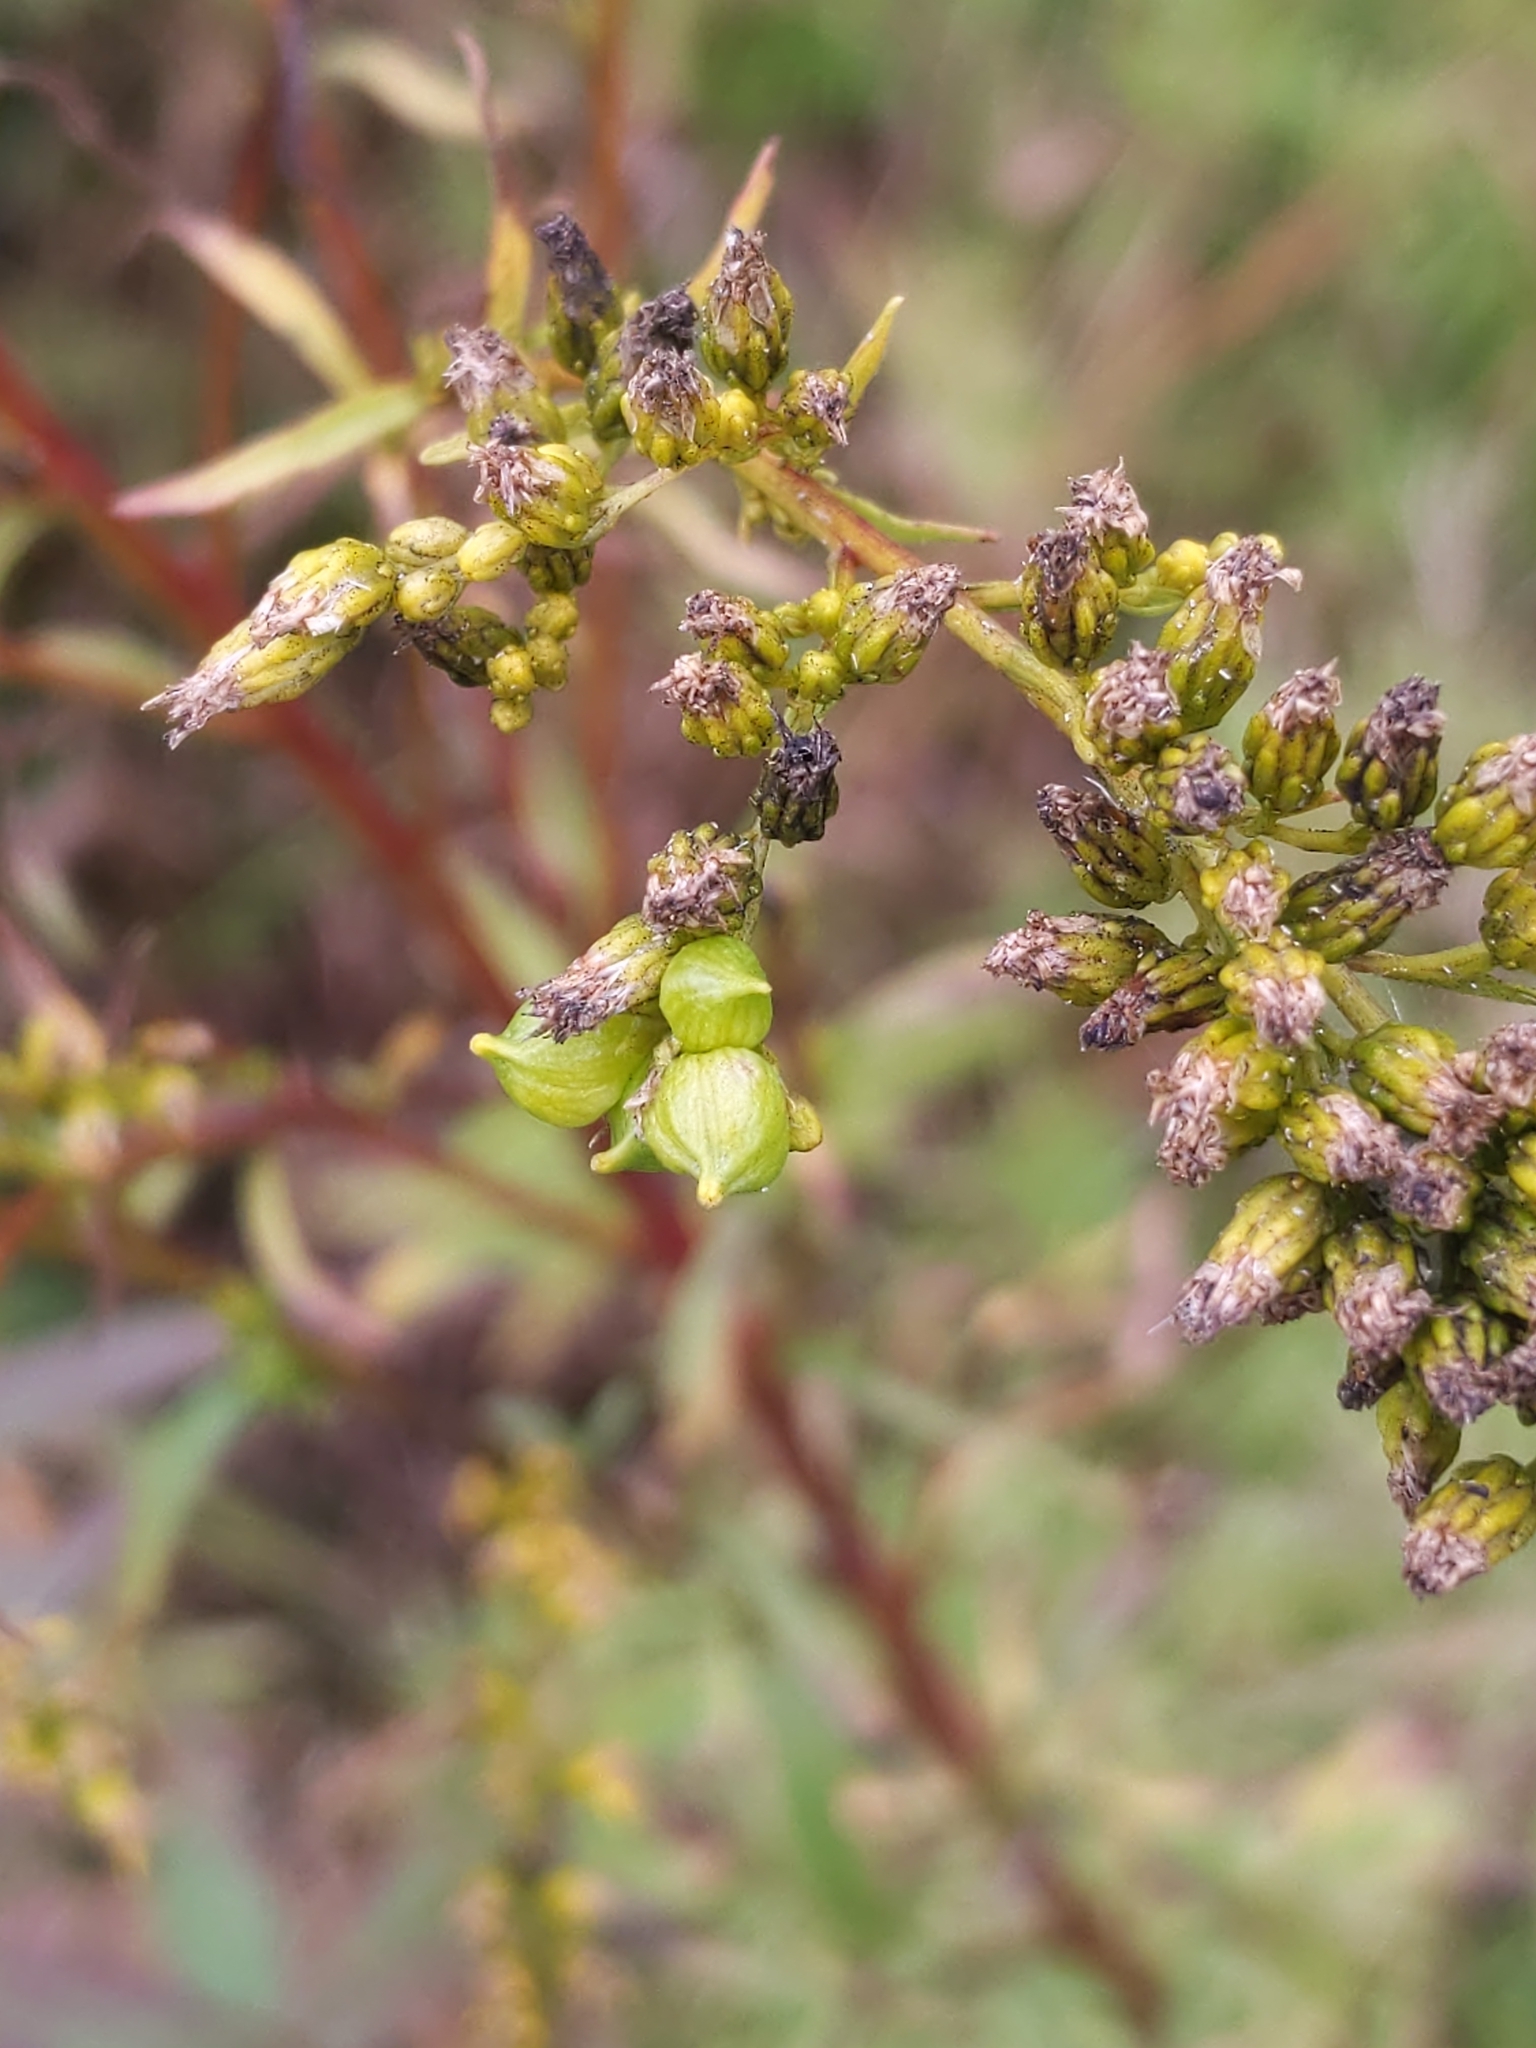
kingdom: Animalia
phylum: Arthropoda
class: Insecta
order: Diptera
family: Cecidomyiidae
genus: Schizomyia
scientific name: Schizomyia racemicola
